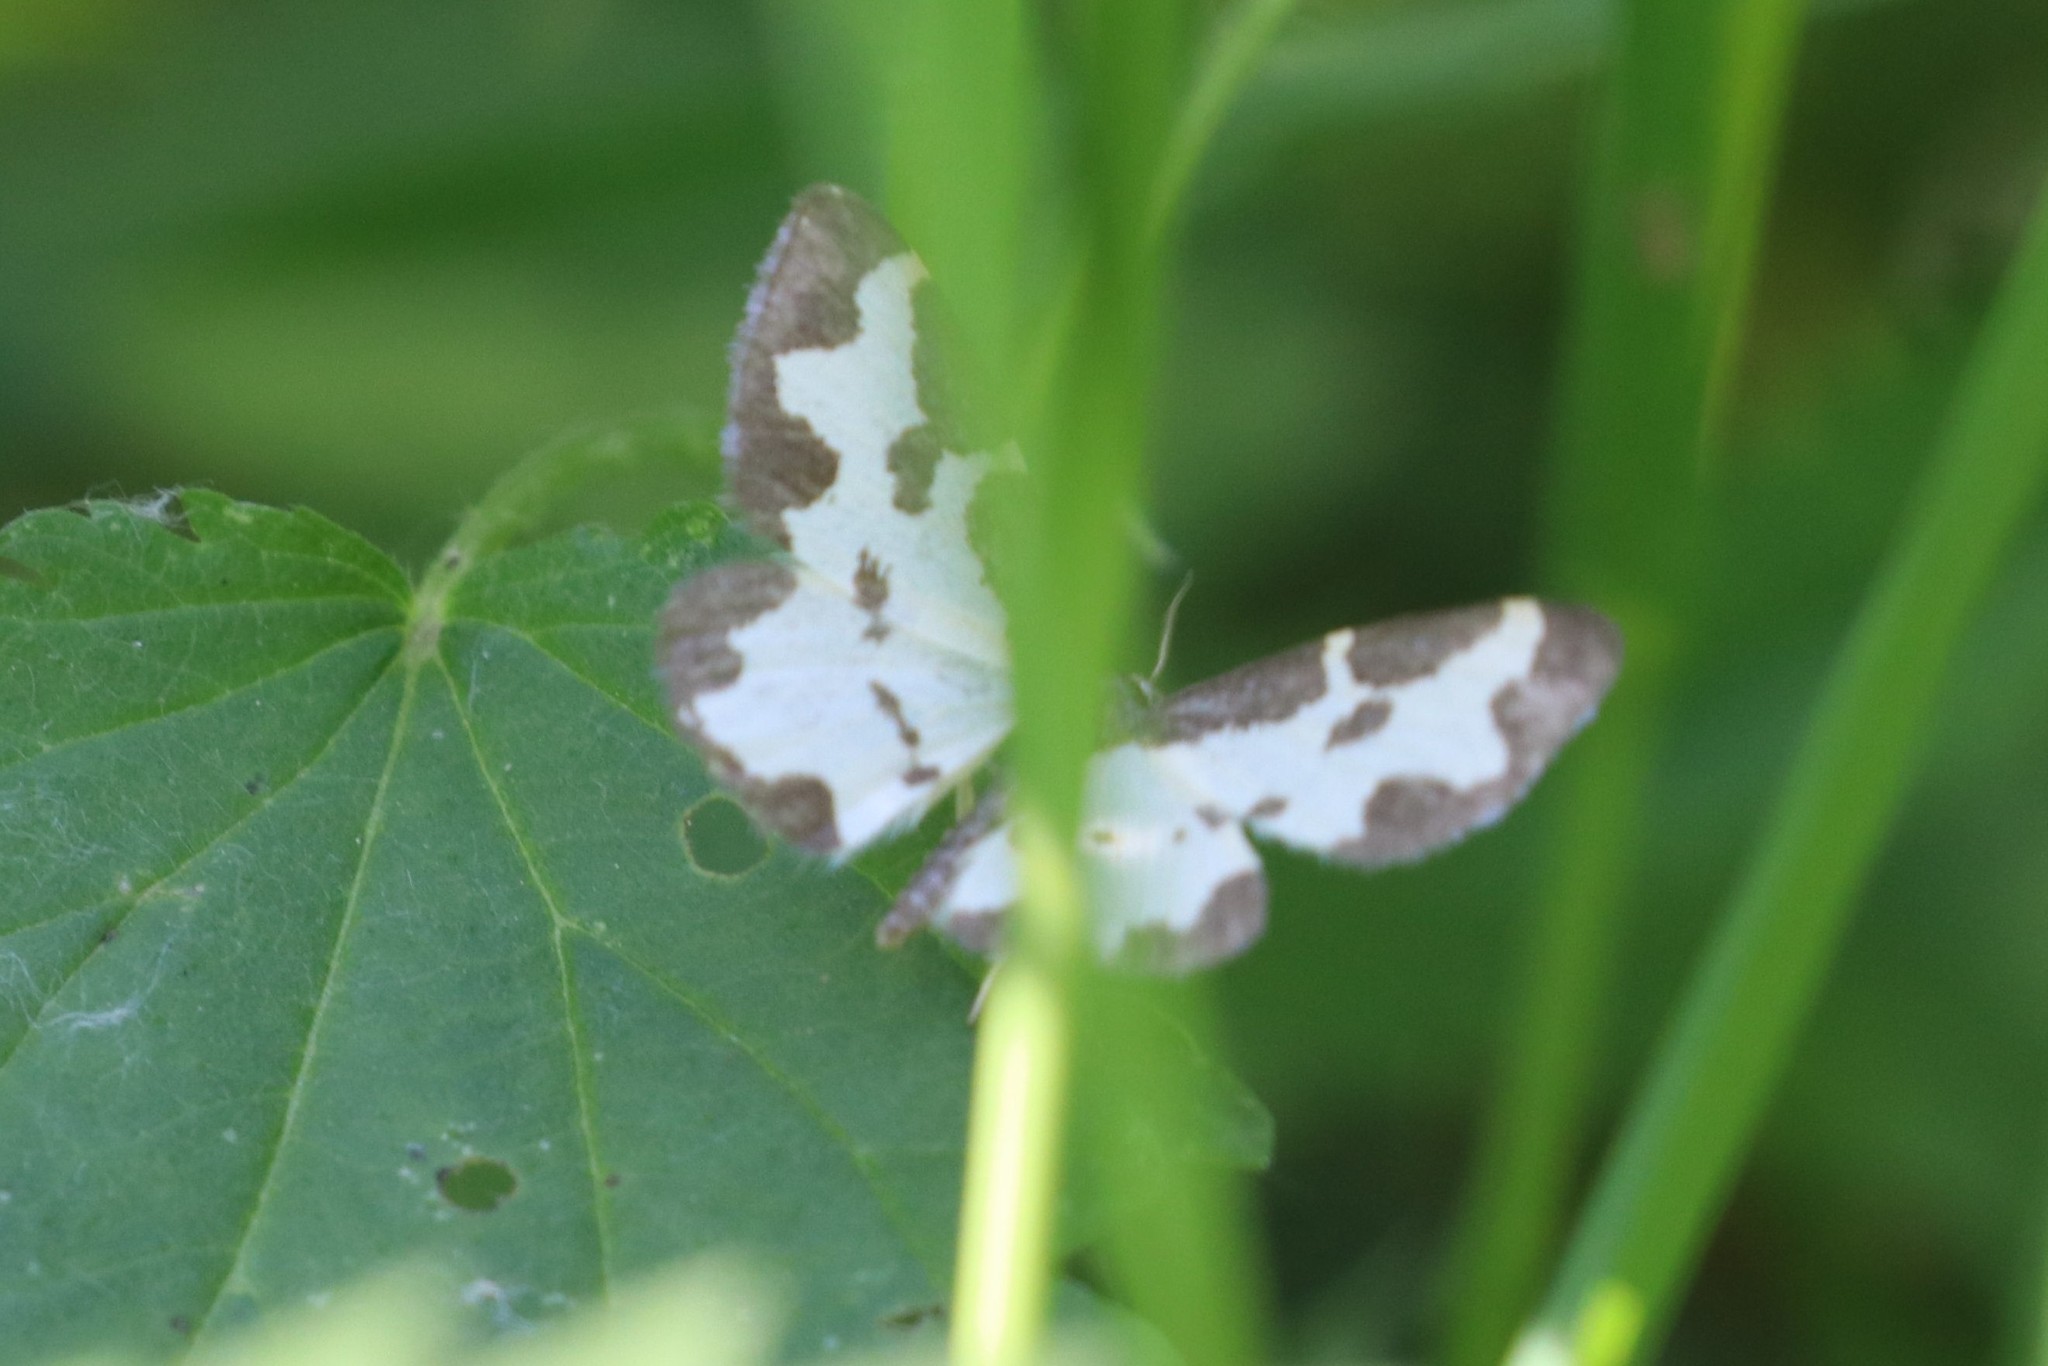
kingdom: Animalia
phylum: Arthropoda
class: Insecta
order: Lepidoptera
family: Geometridae
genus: Lomaspilis
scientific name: Lomaspilis marginata
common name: Clouded border
